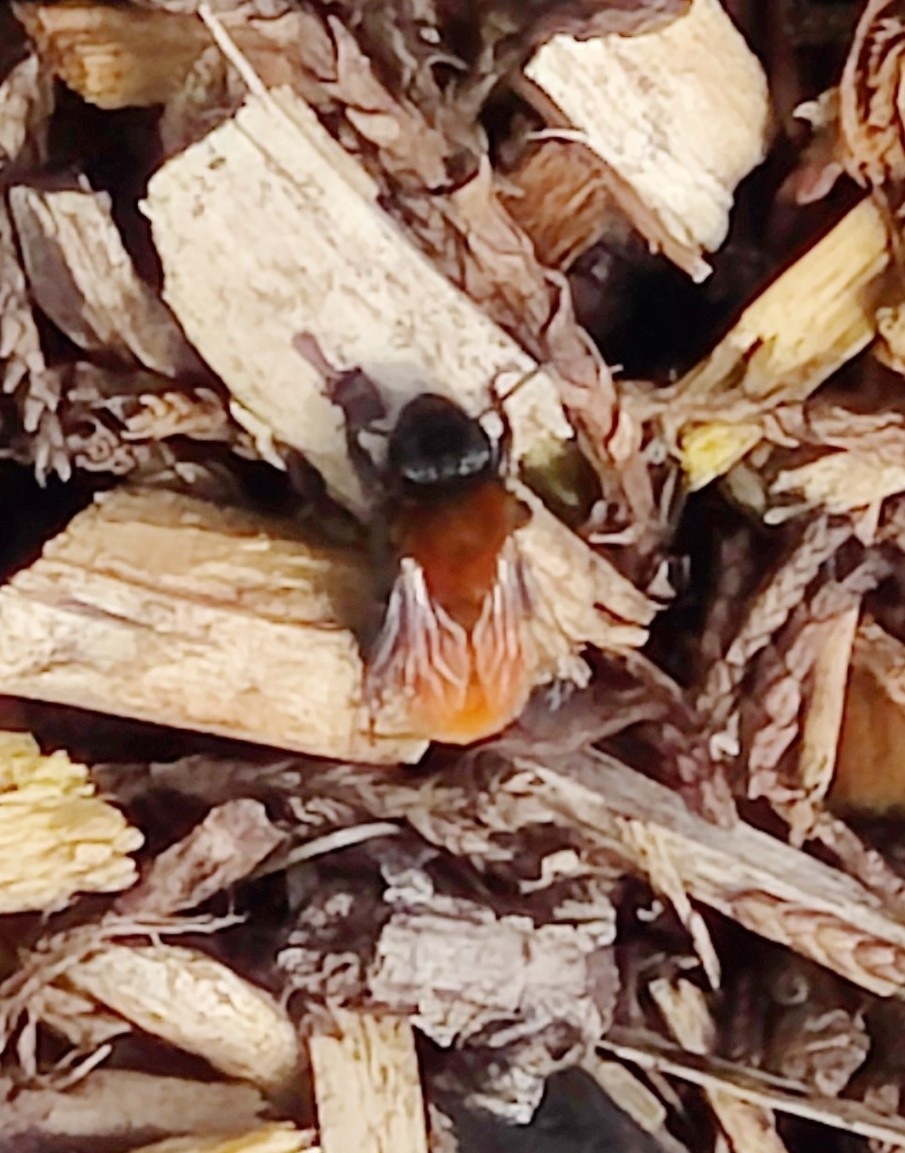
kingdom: Animalia
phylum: Arthropoda
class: Insecta
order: Hymenoptera
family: Andrenidae
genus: Andrena
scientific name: Andrena fulva
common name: Tawny mining bee
